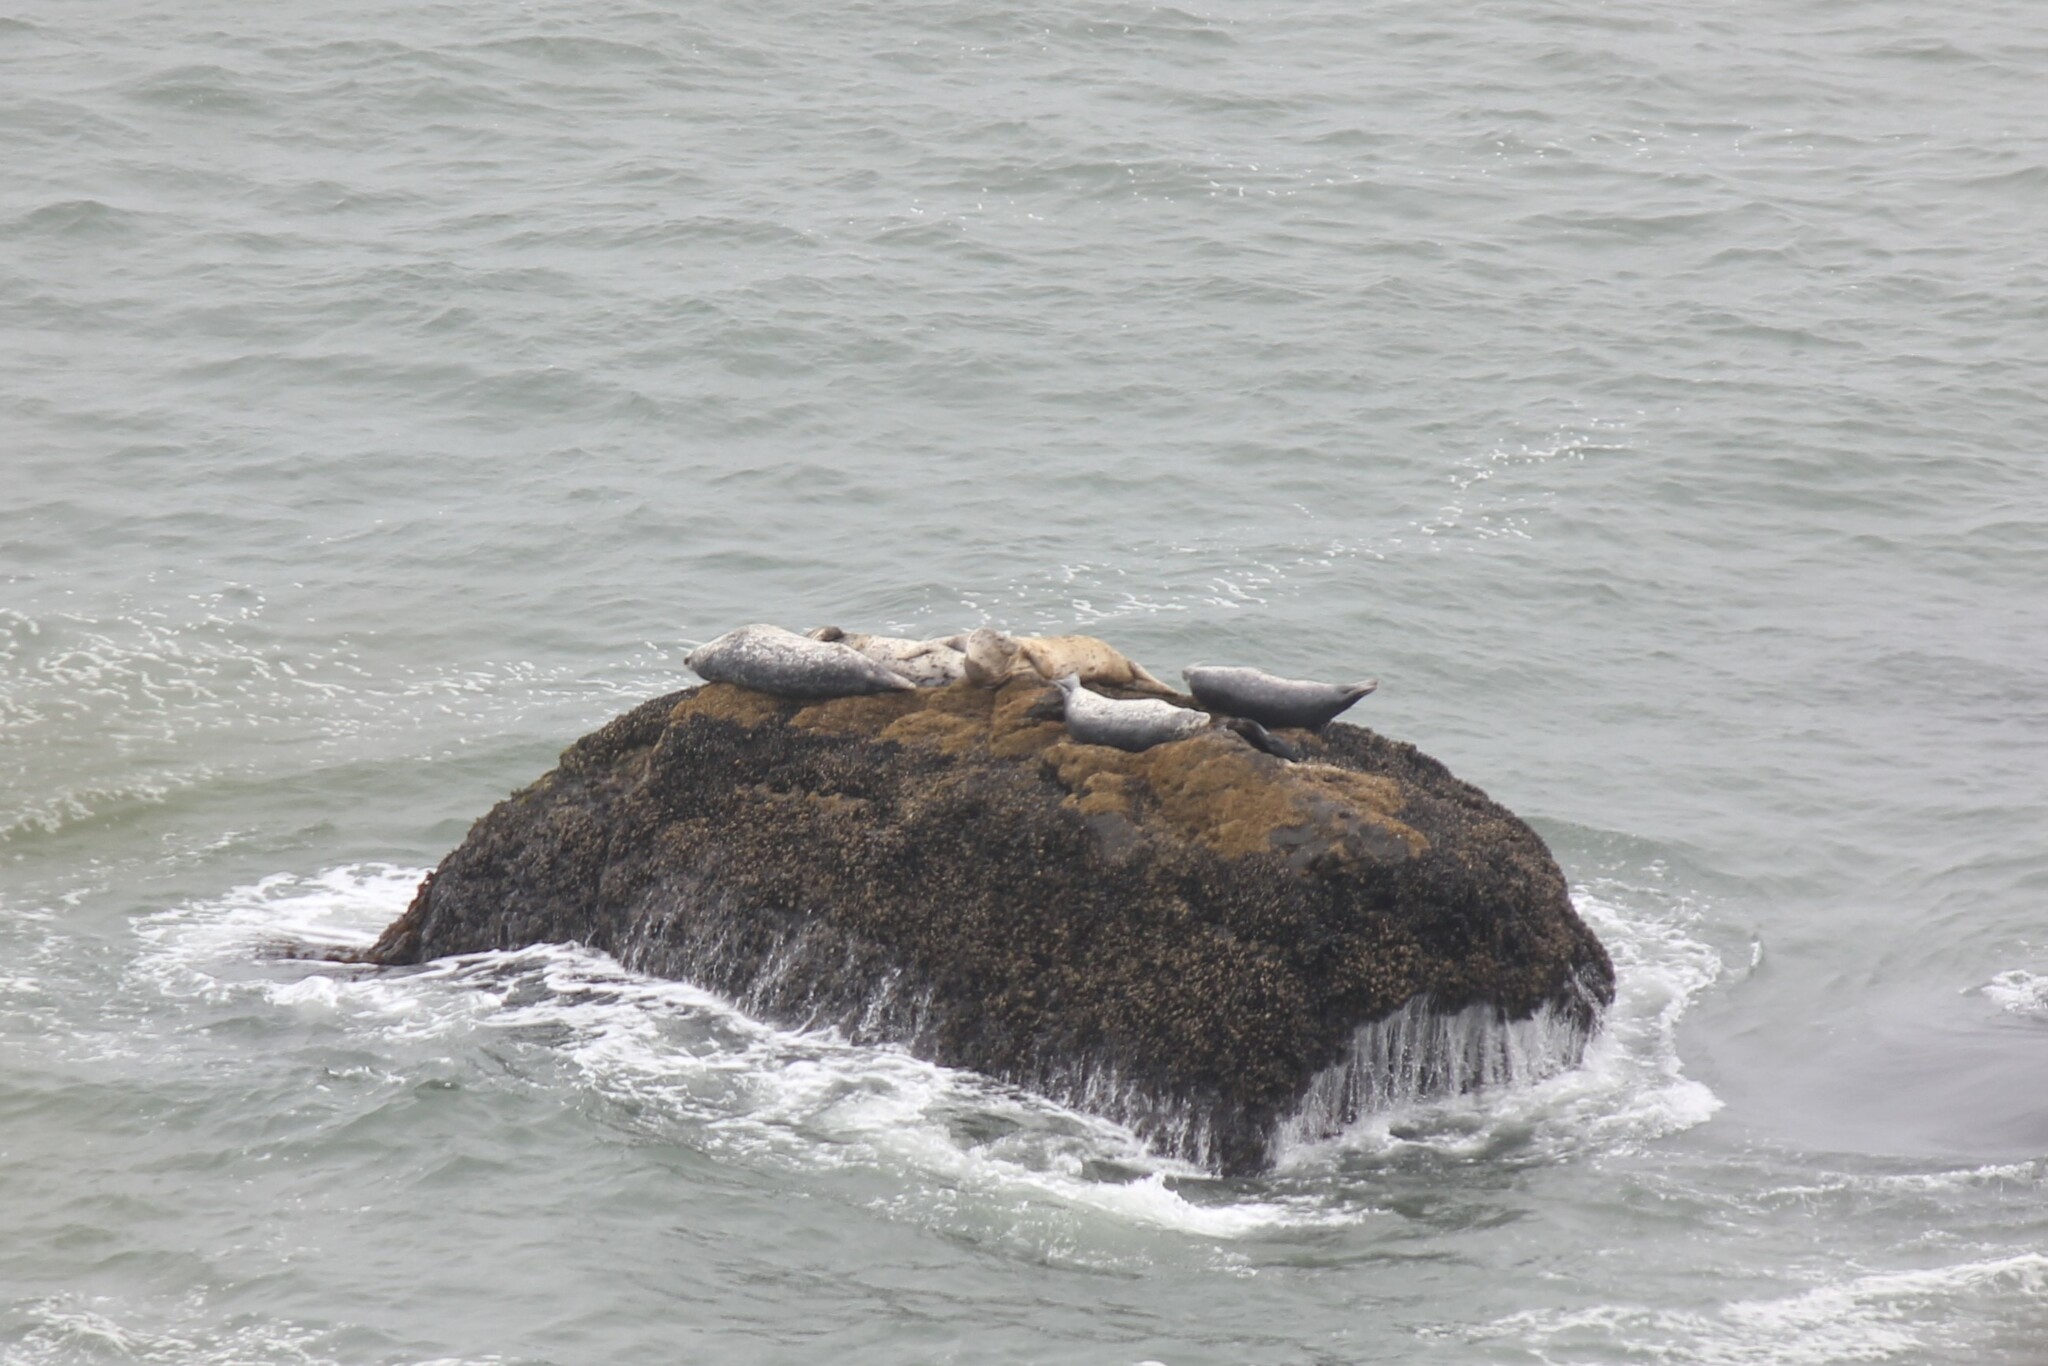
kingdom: Animalia
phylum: Chordata
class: Mammalia
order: Carnivora
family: Phocidae
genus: Phoca
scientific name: Phoca vitulina
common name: Harbor seal
